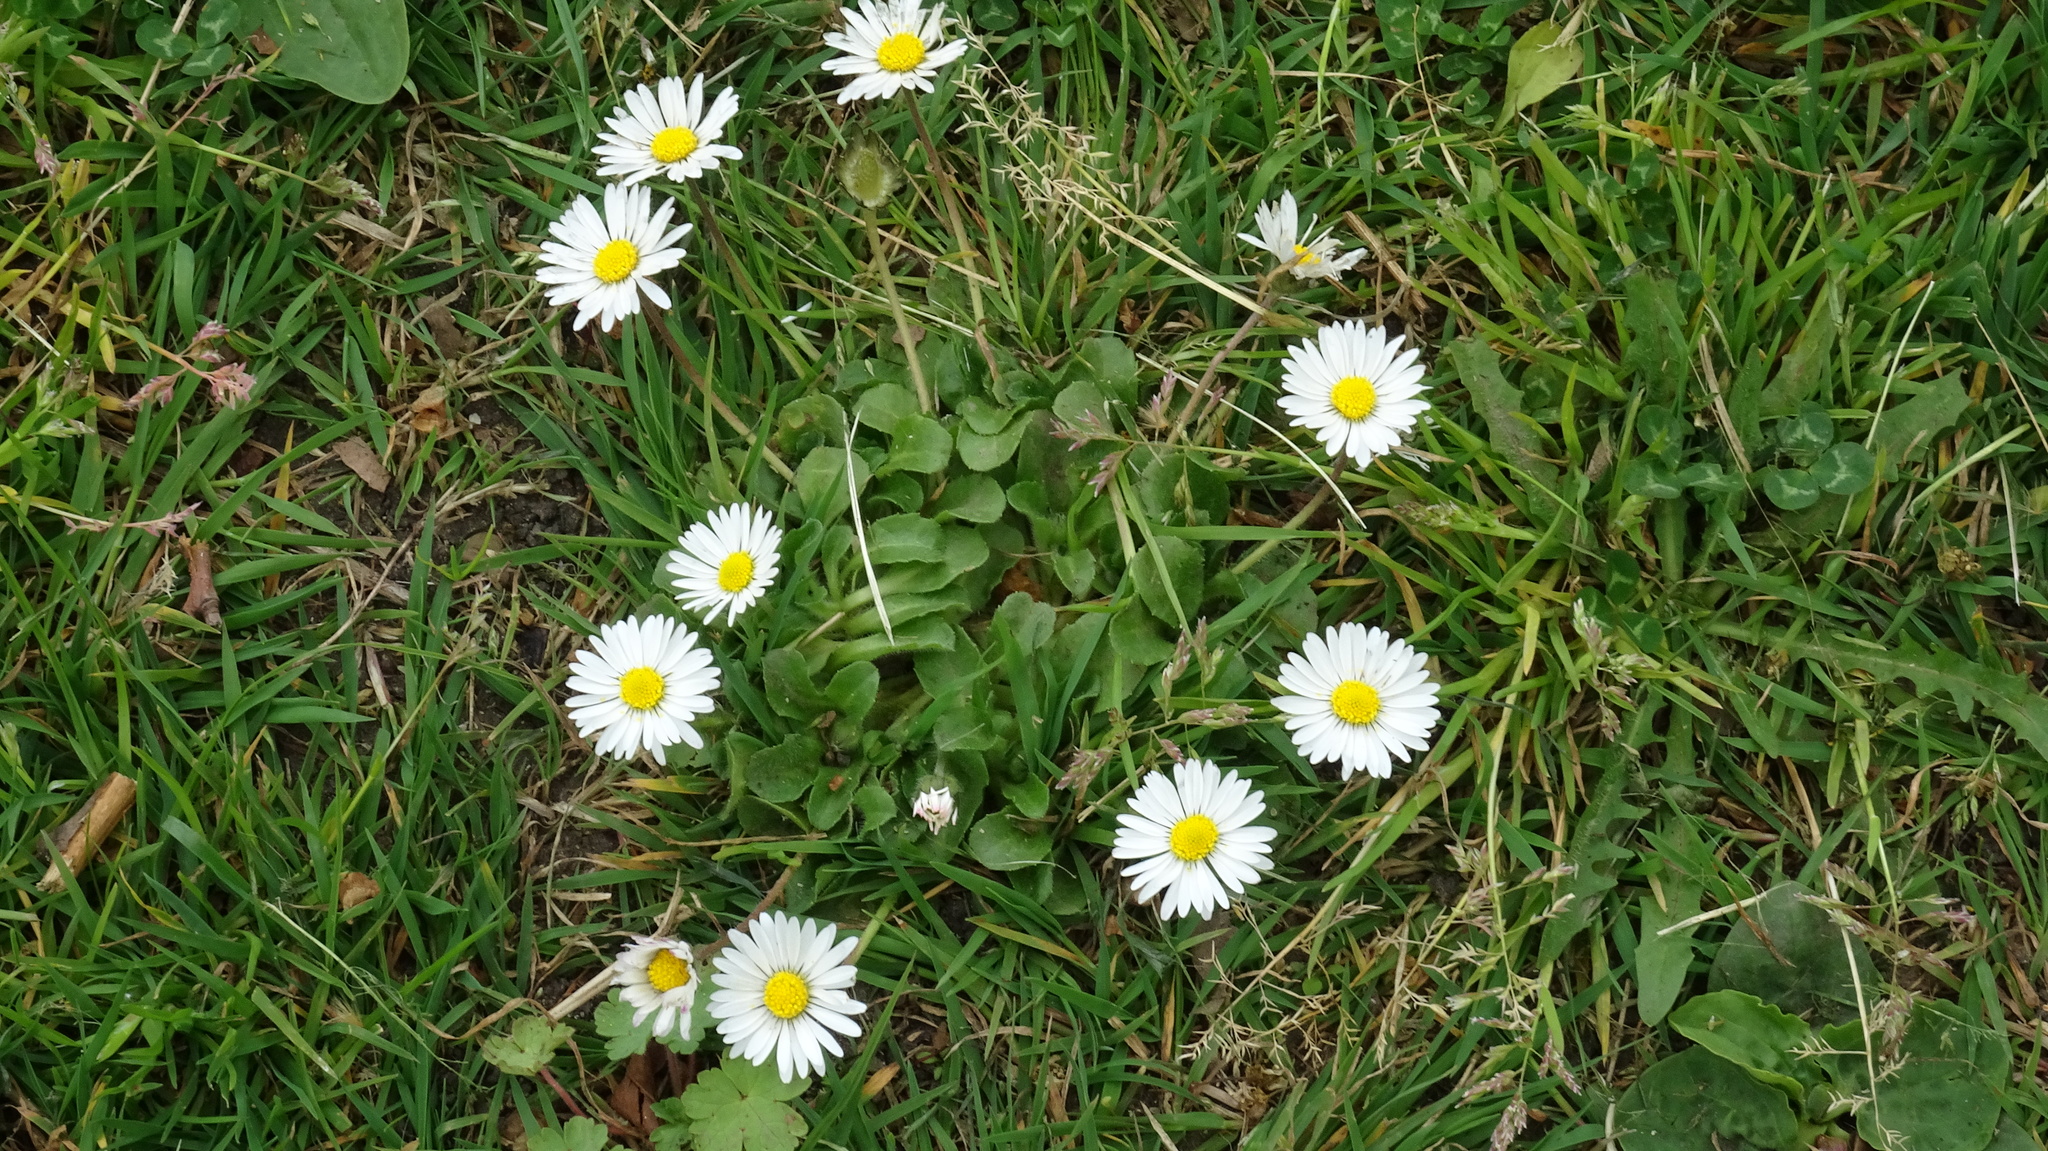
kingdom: Plantae
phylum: Tracheophyta
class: Magnoliopsida
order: Asterales
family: Asteraceae
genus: Bellis
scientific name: Bellis perennis
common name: Lawndaisy
